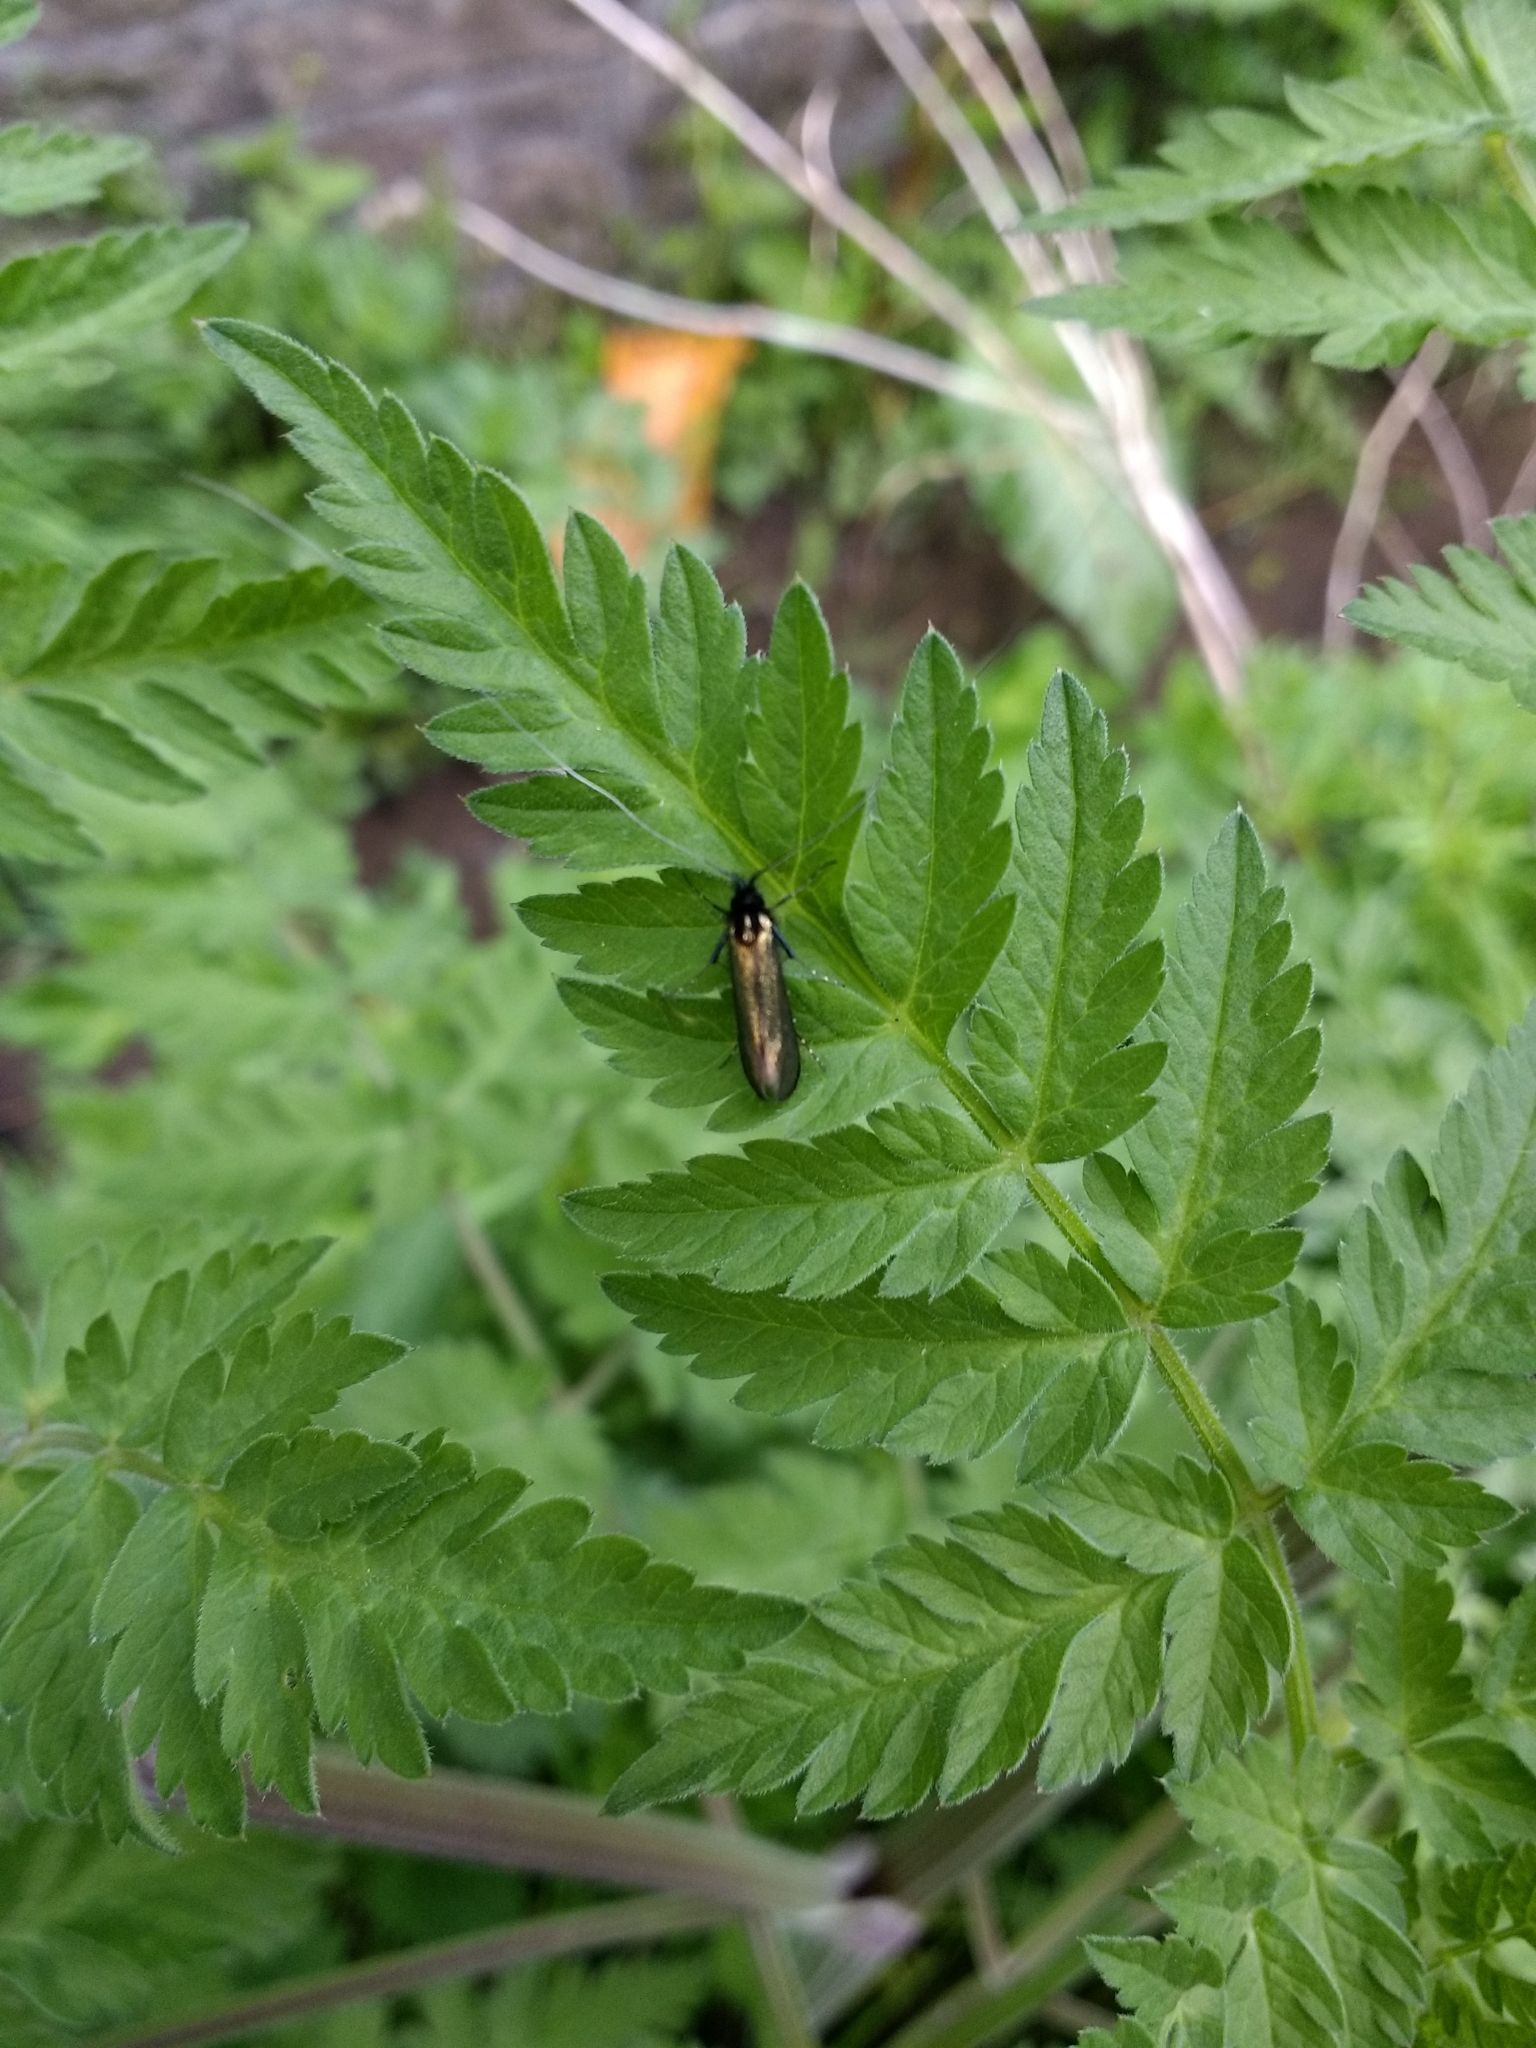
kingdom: Animalia
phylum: Arthropoda
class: Insecta
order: Lepidoptera
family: Adelidae
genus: Adela
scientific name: Adela viridella
